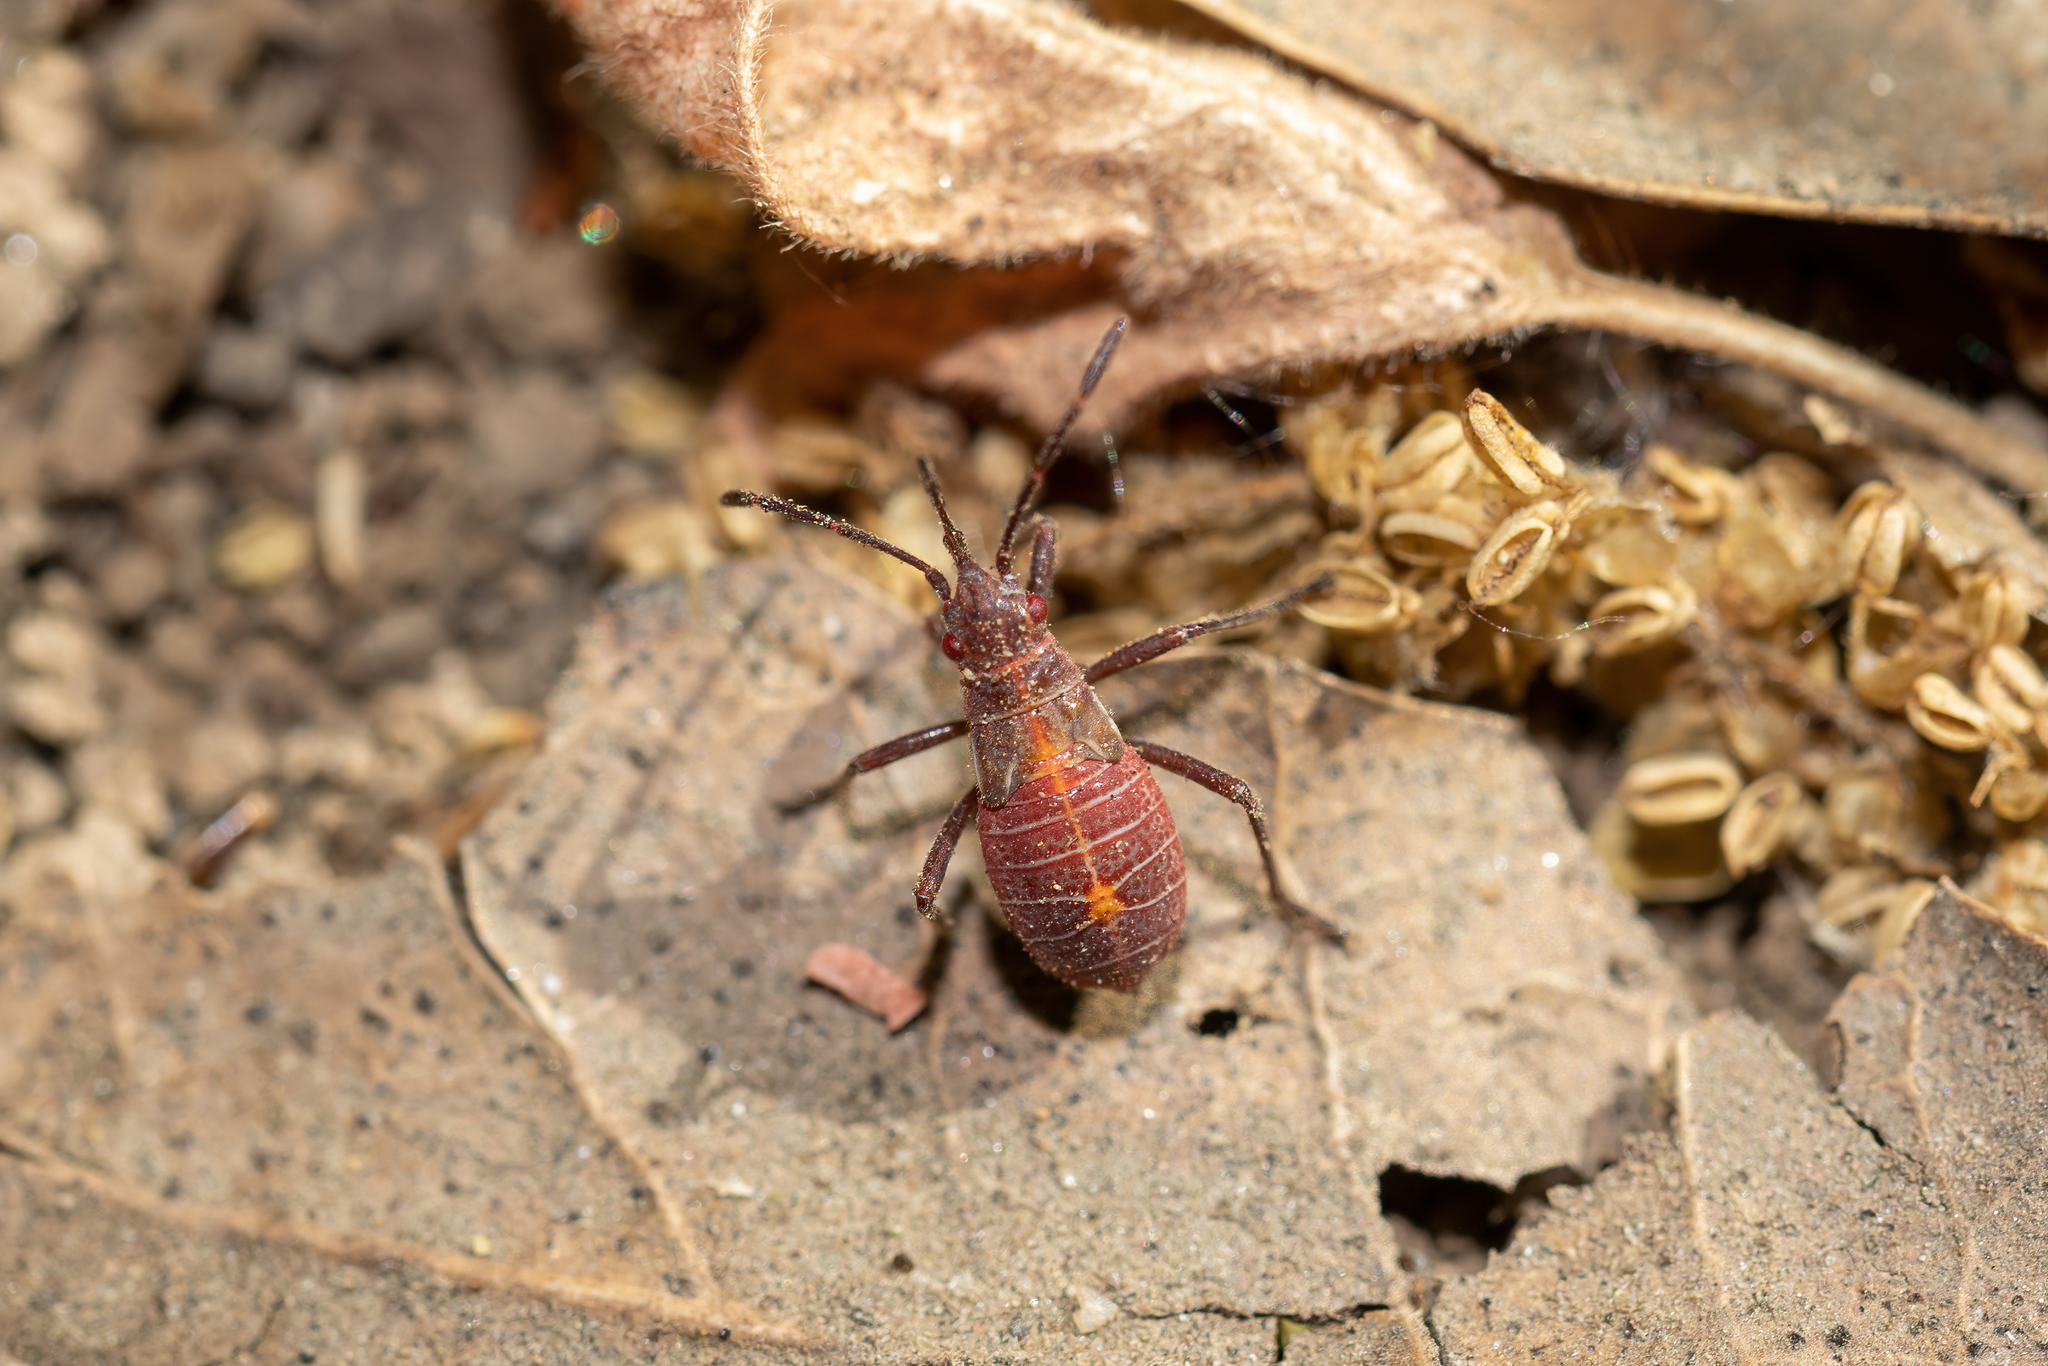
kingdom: Animalia
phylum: Arthropoda
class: Insecta
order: Hemiptera
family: Rhopalidae
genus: Boisea
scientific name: Boisea rubrolineata
